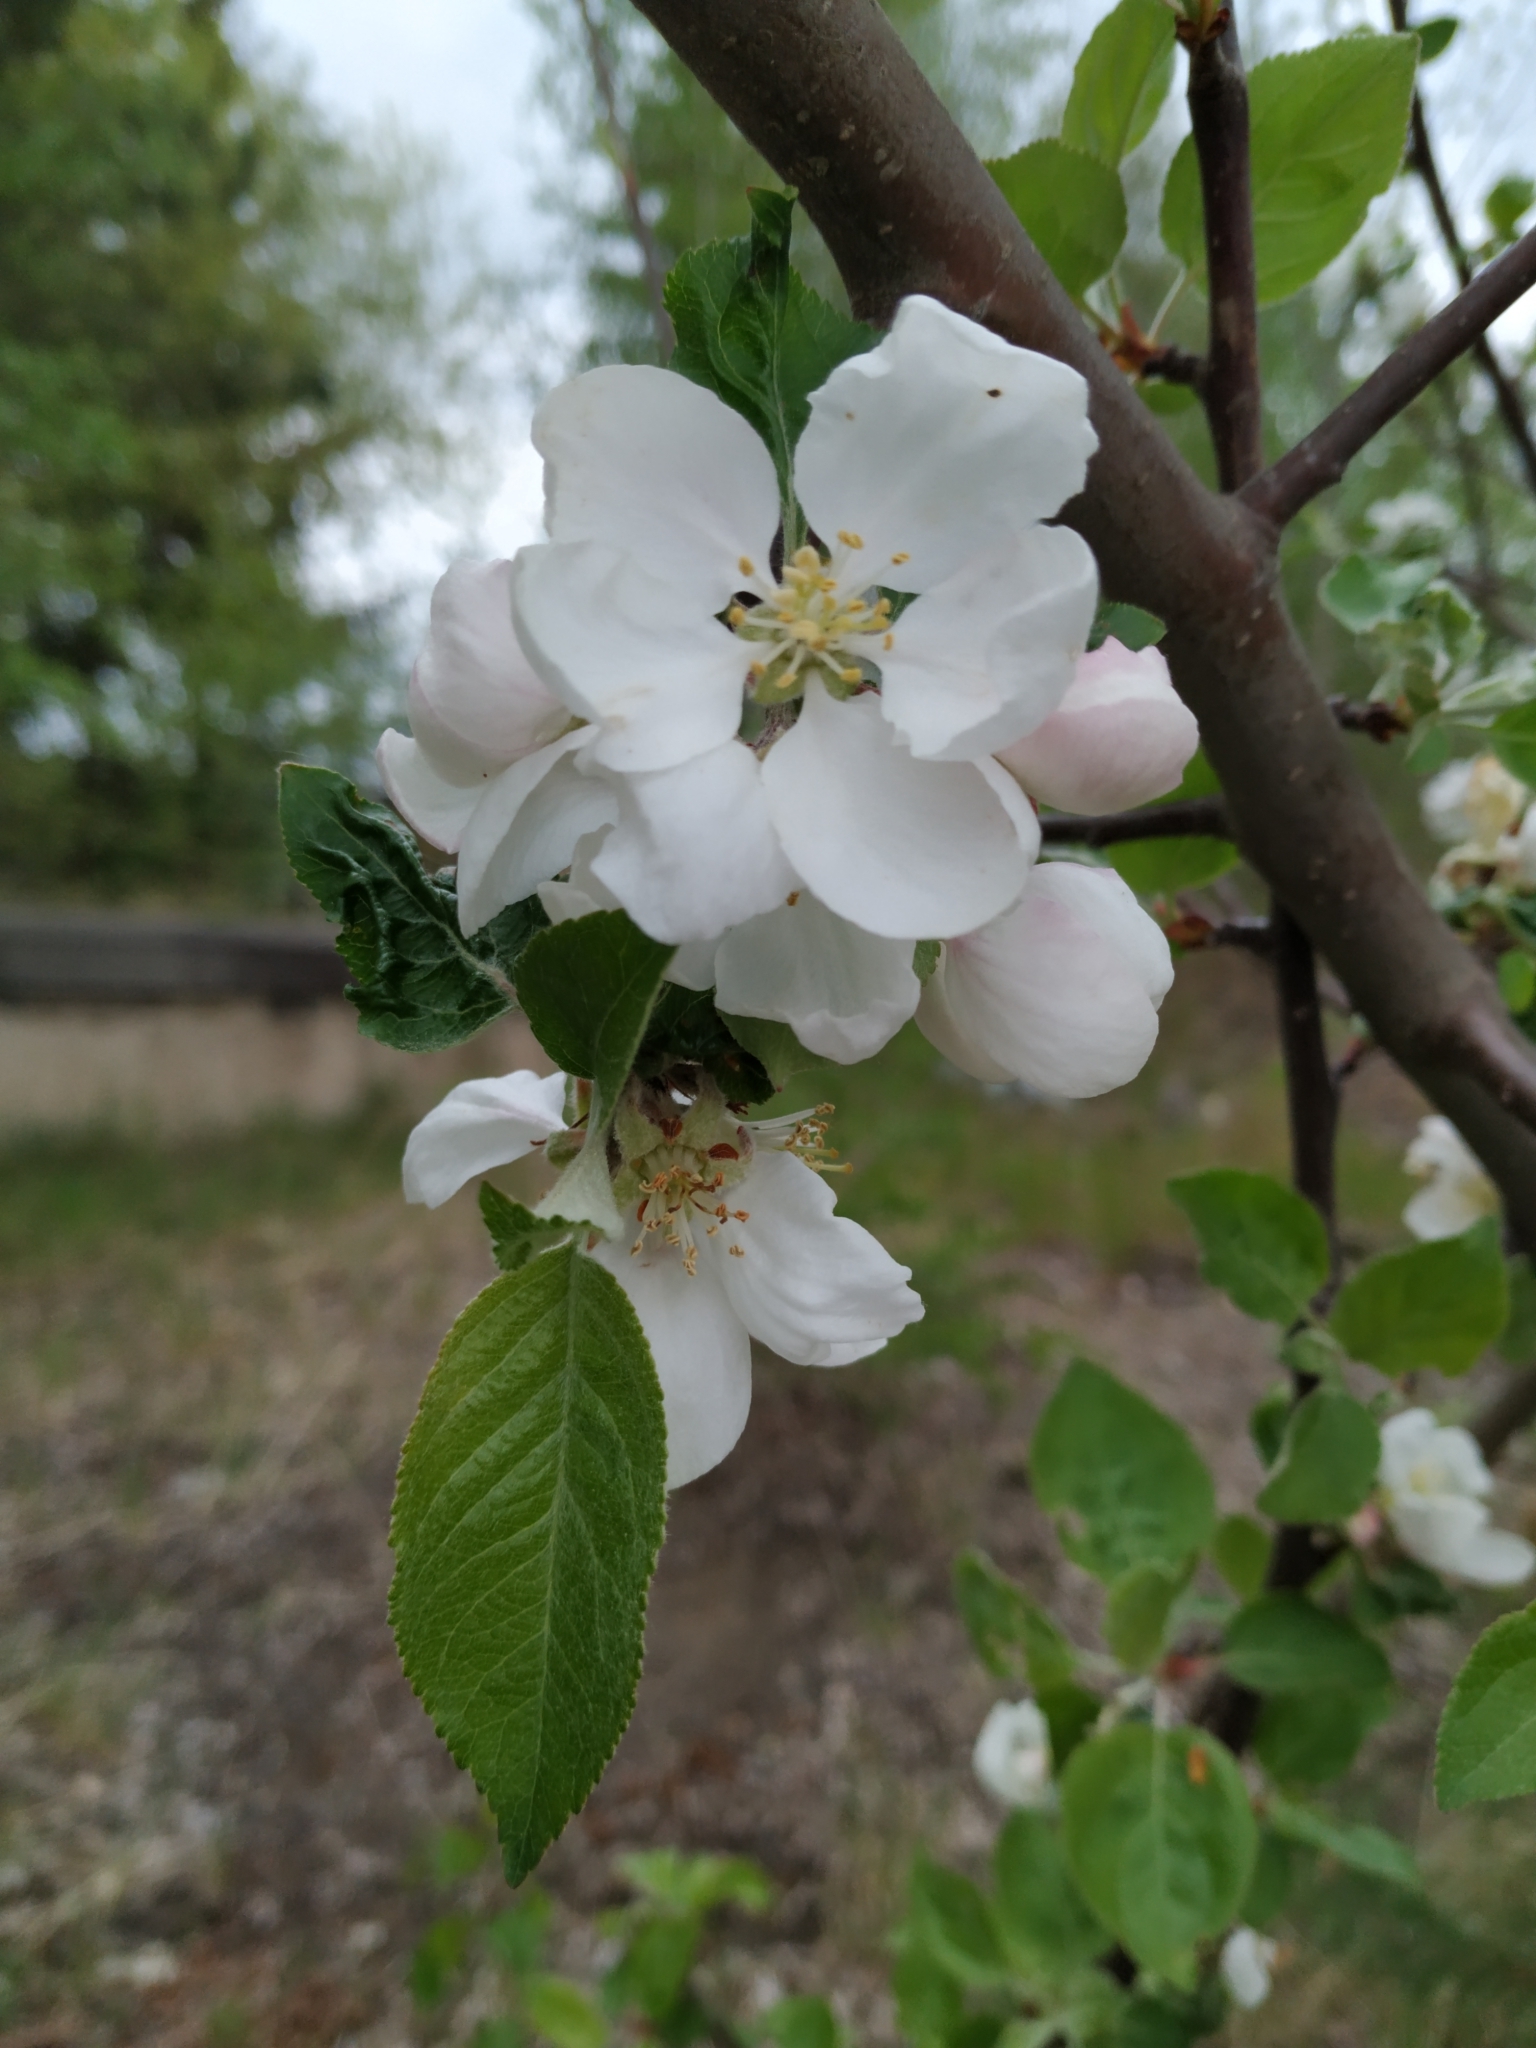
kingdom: Plantae
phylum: Tracheophyta
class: Magnoliopsida
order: Rosales
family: Rosaceae
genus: Malus
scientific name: Malus domestica
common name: Apple
